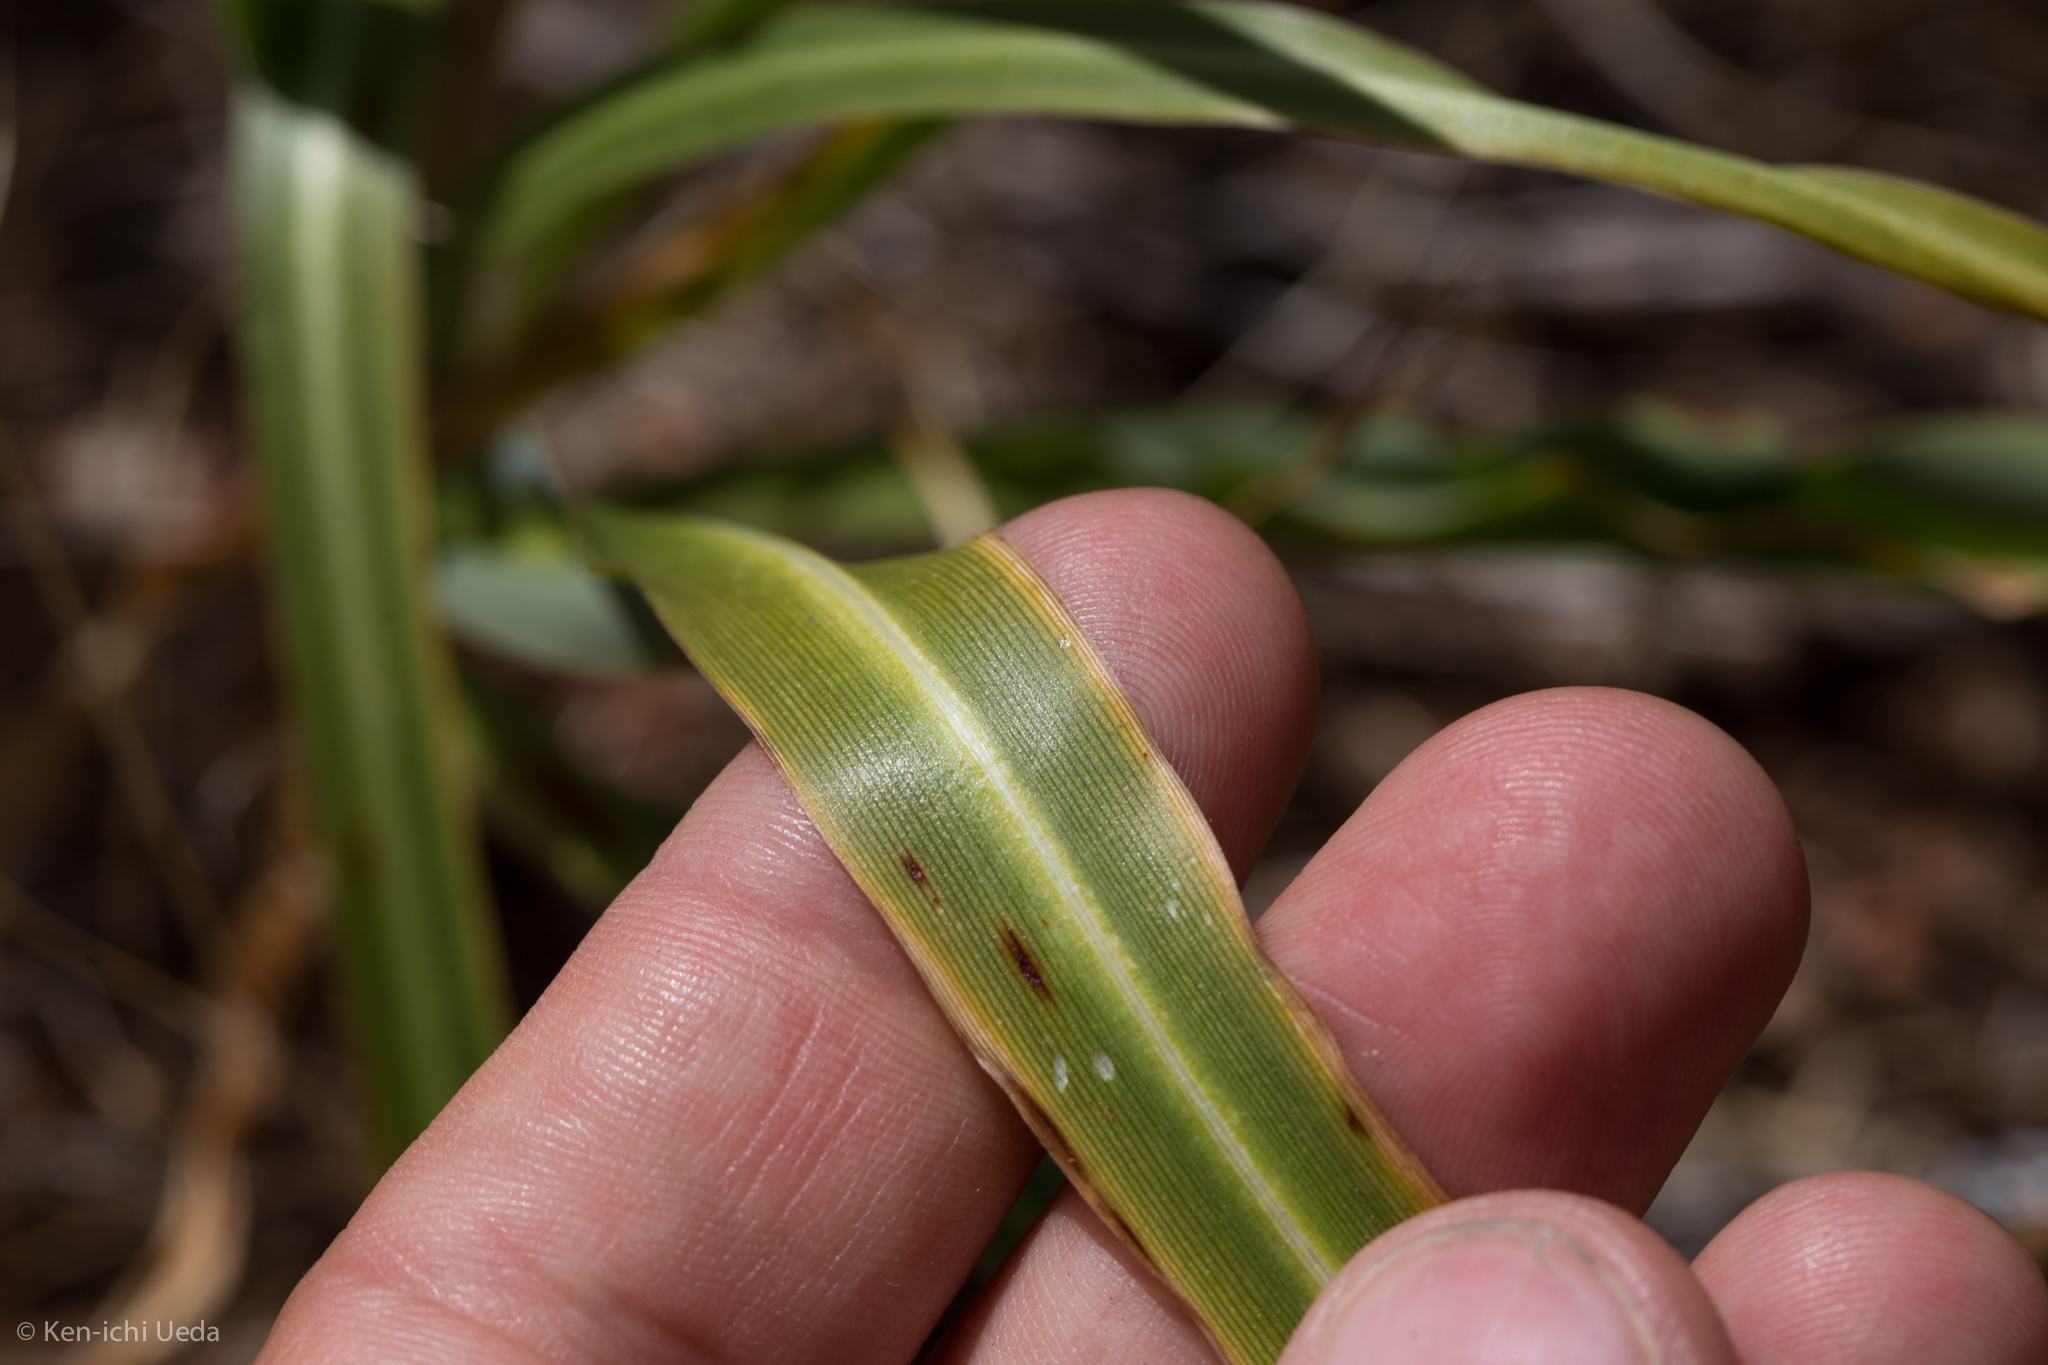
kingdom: Plantae
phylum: Tracheophyta
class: Liliopsida
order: Asparagales
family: Asparagaceae
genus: Chlorogalum
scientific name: Chlorogalum grandiflorum
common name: Red hills soap-plant
